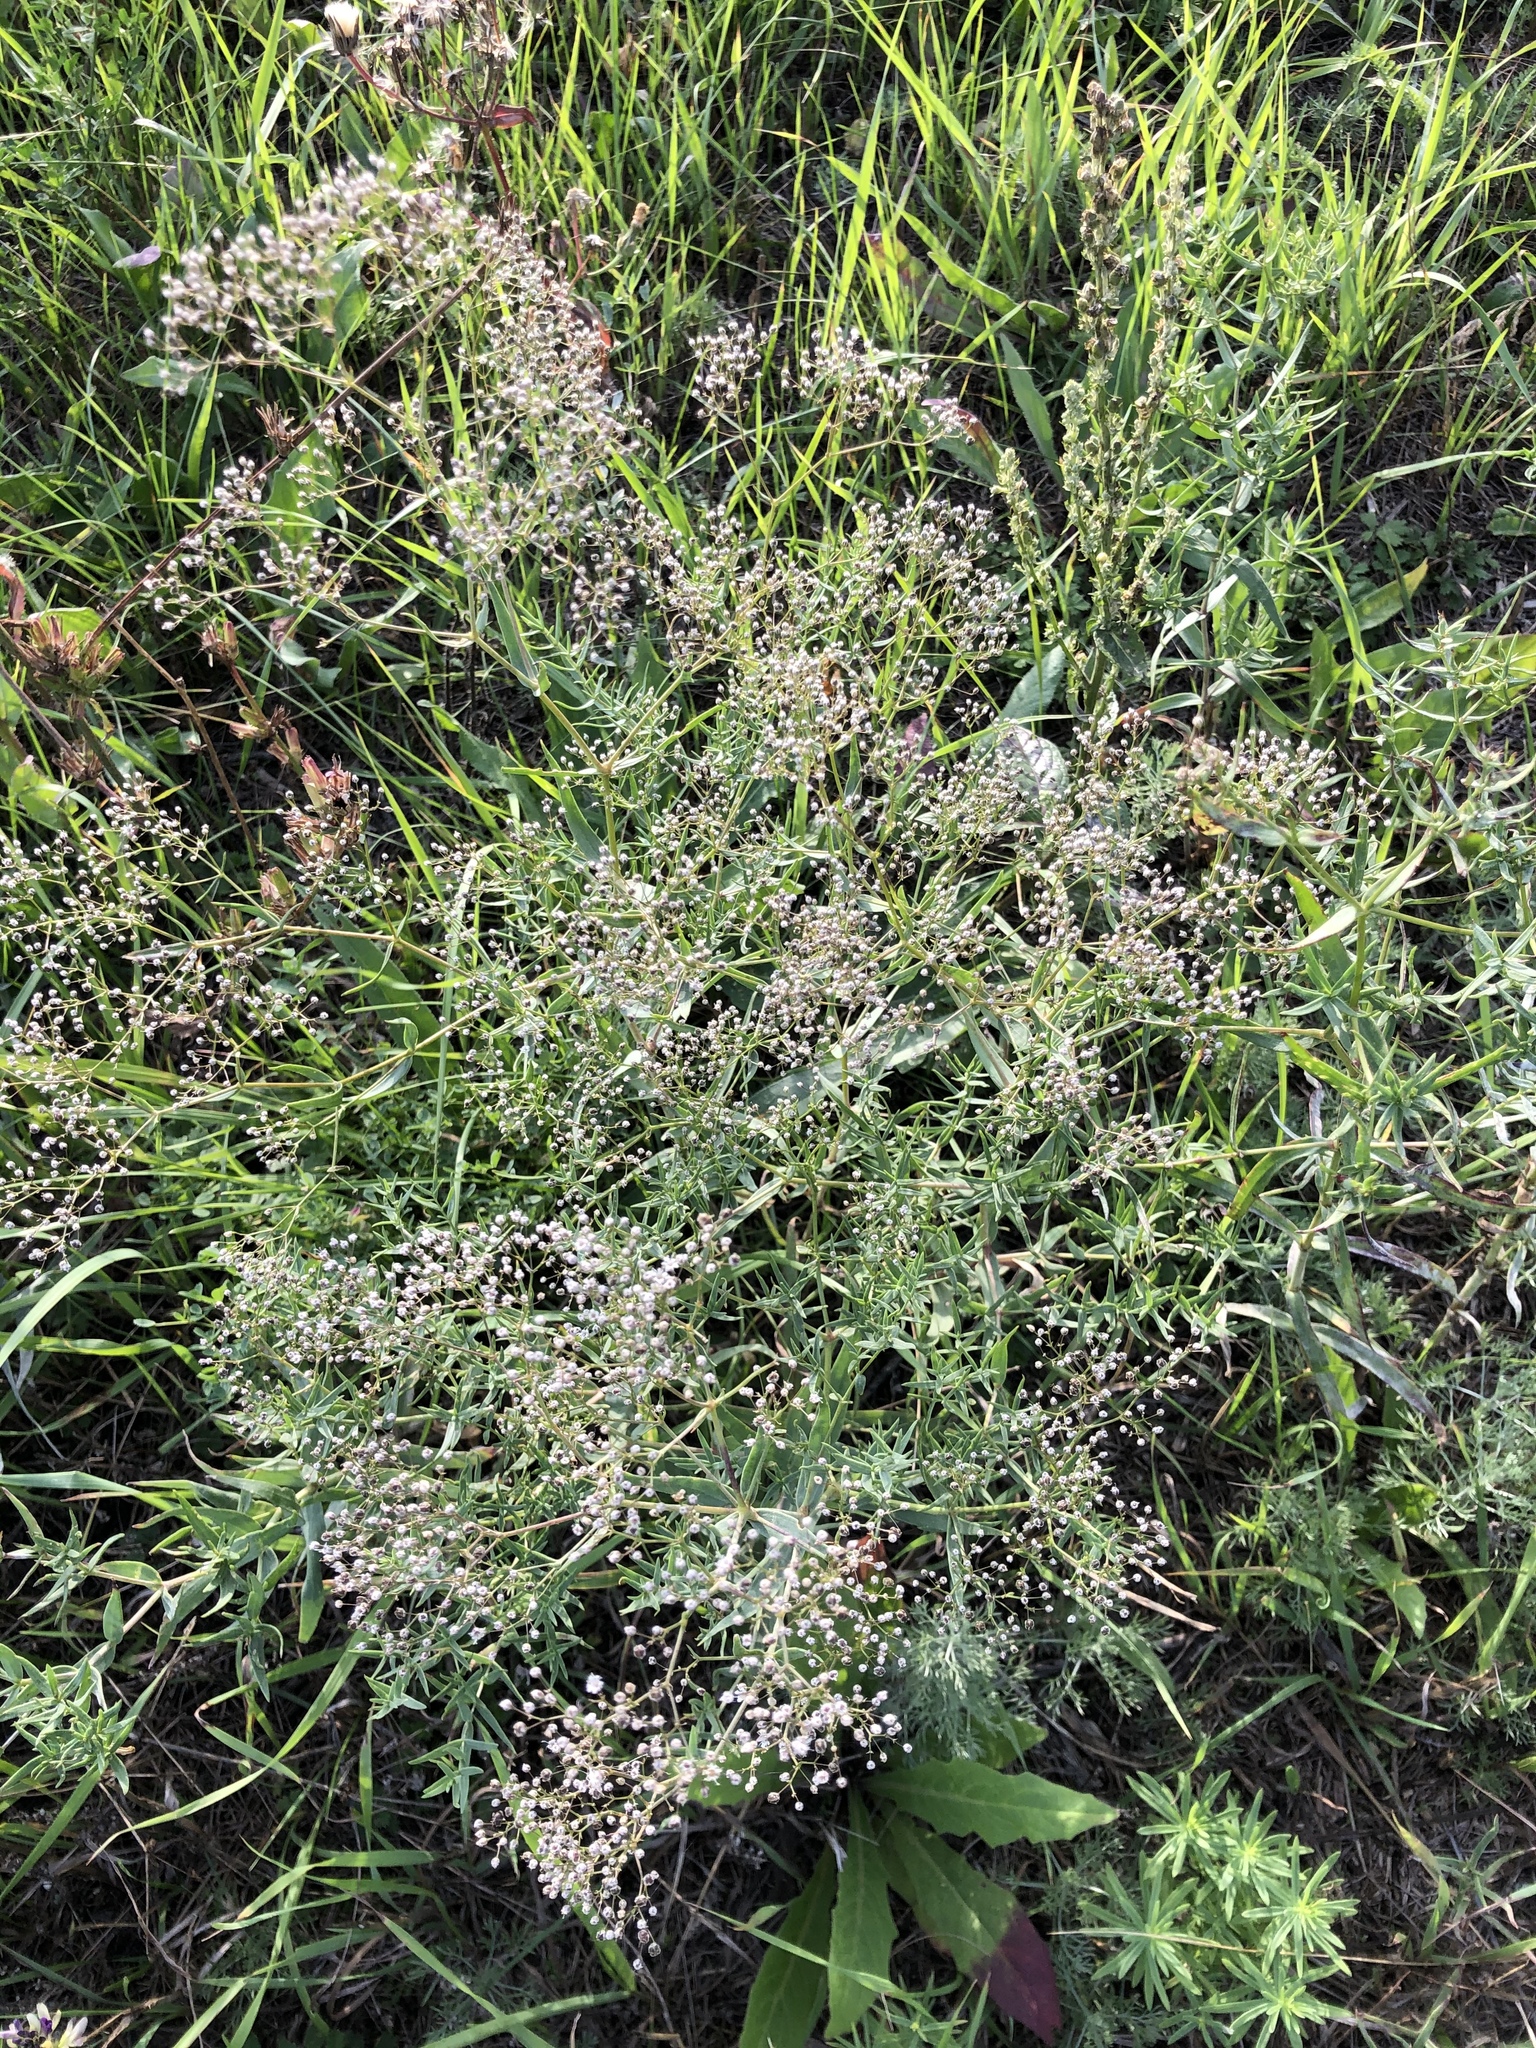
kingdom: Plantae
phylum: Tracheophyta
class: Magnoliopsida
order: Caryophyllales
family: Caryophyllaceae
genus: Gypsophila
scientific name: Gypsophila paniculata
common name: Baby's-breath
